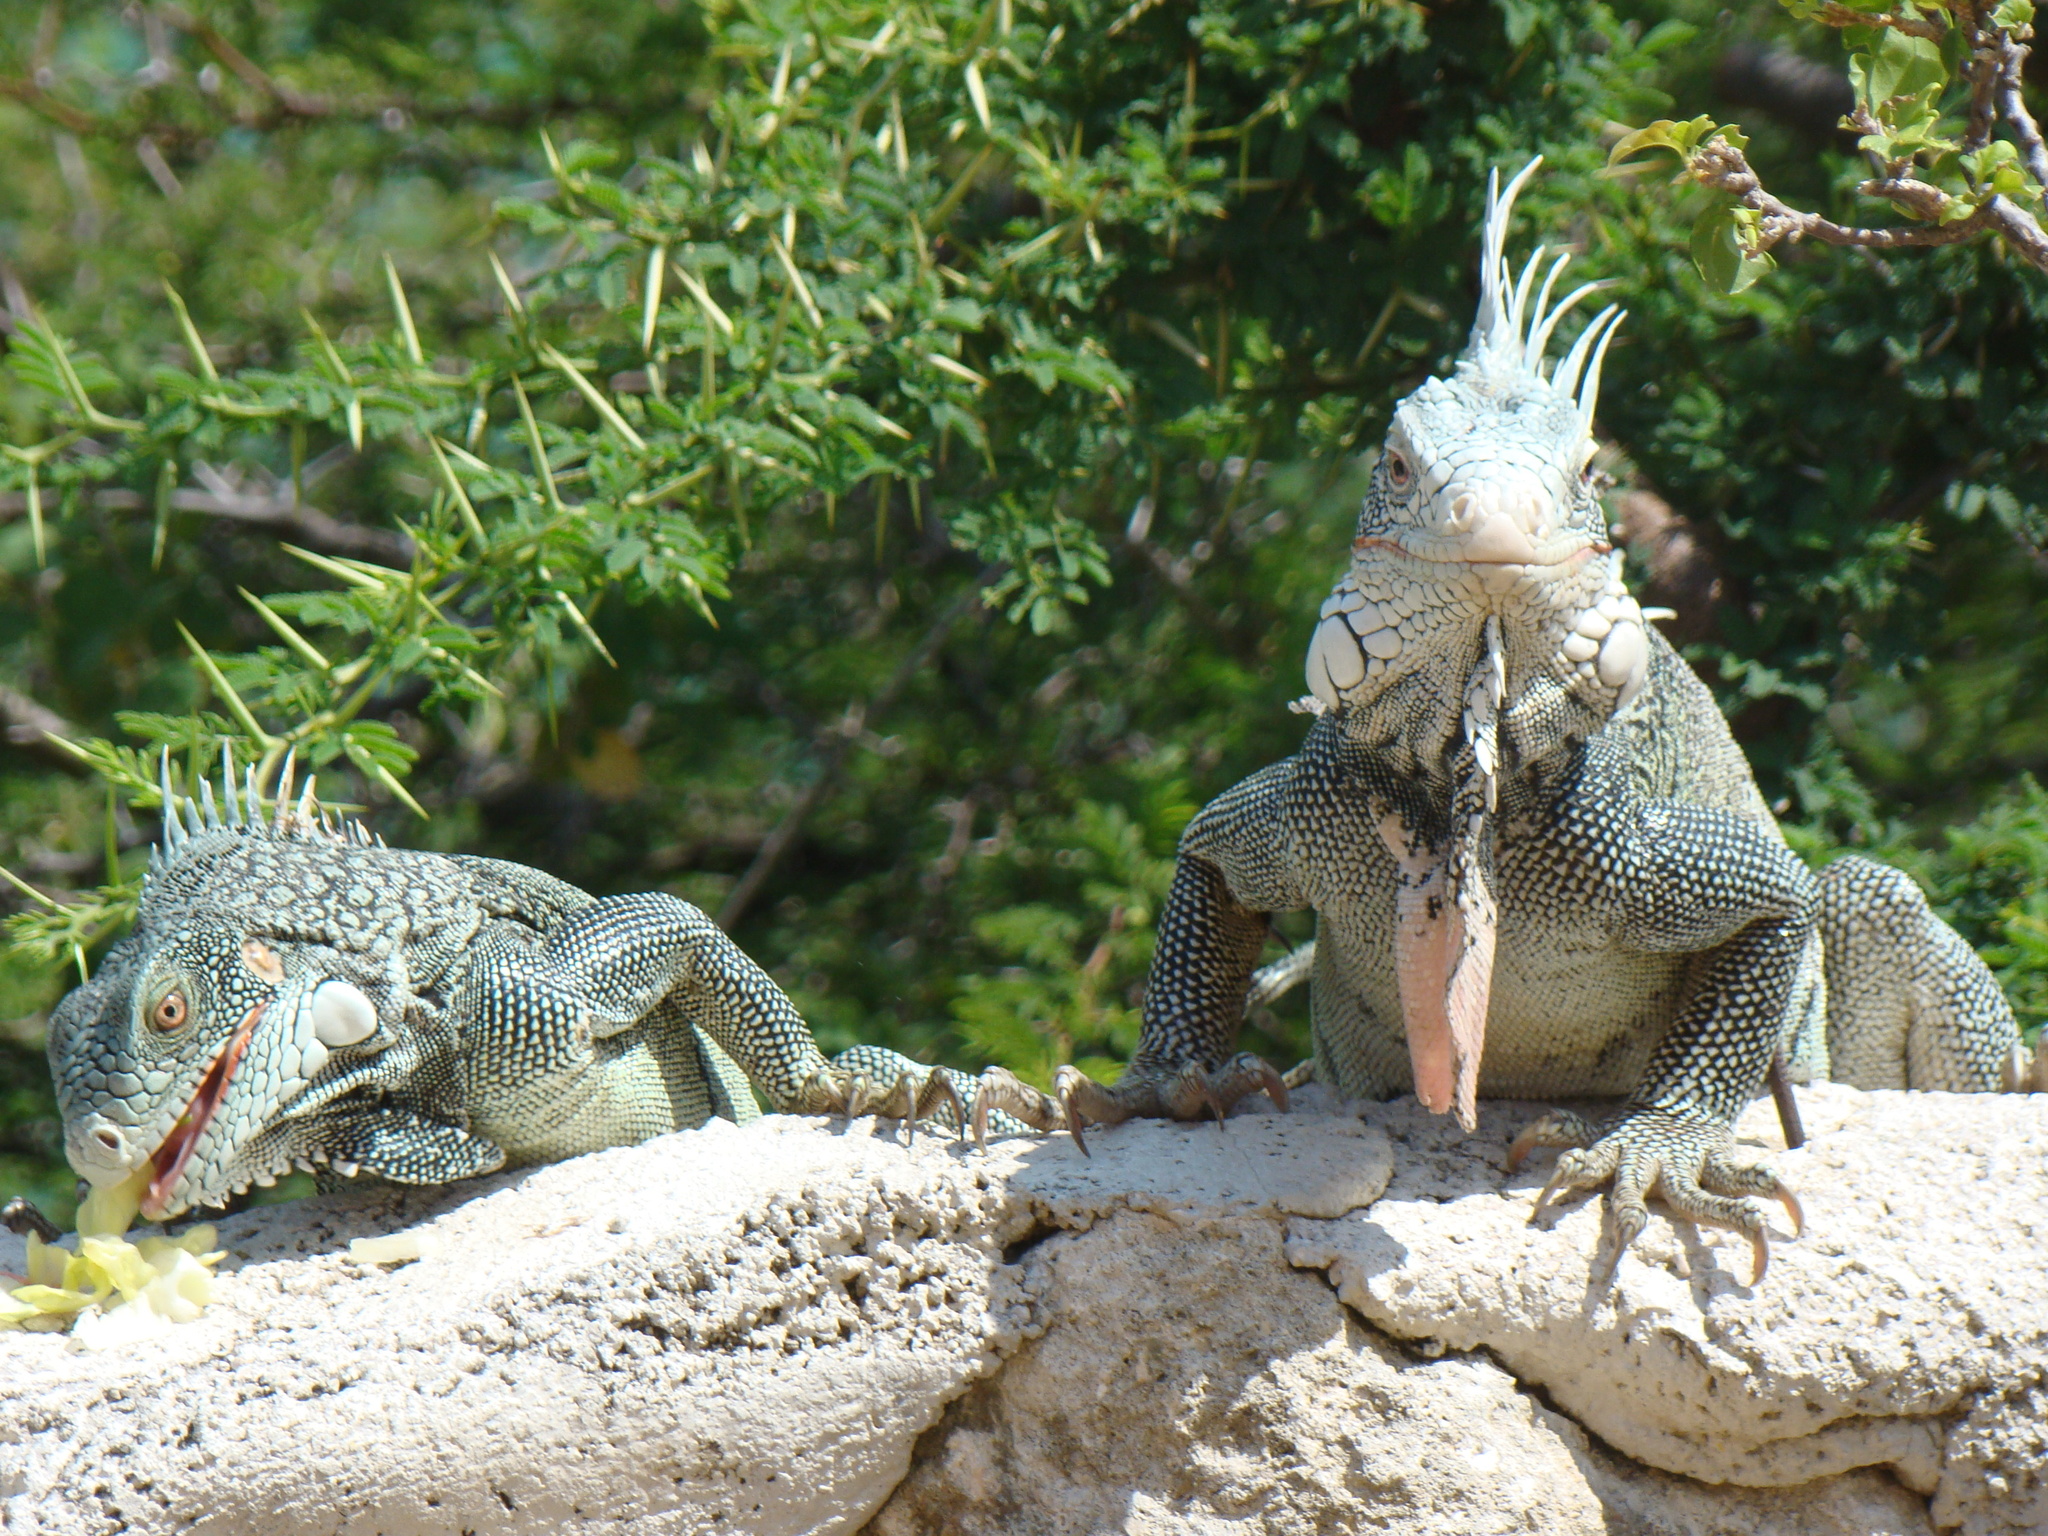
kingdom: Animalia
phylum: Chordata
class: Squamata
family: Iguanidae
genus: Iguana
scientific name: Iguana iguana
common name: Green iguana
